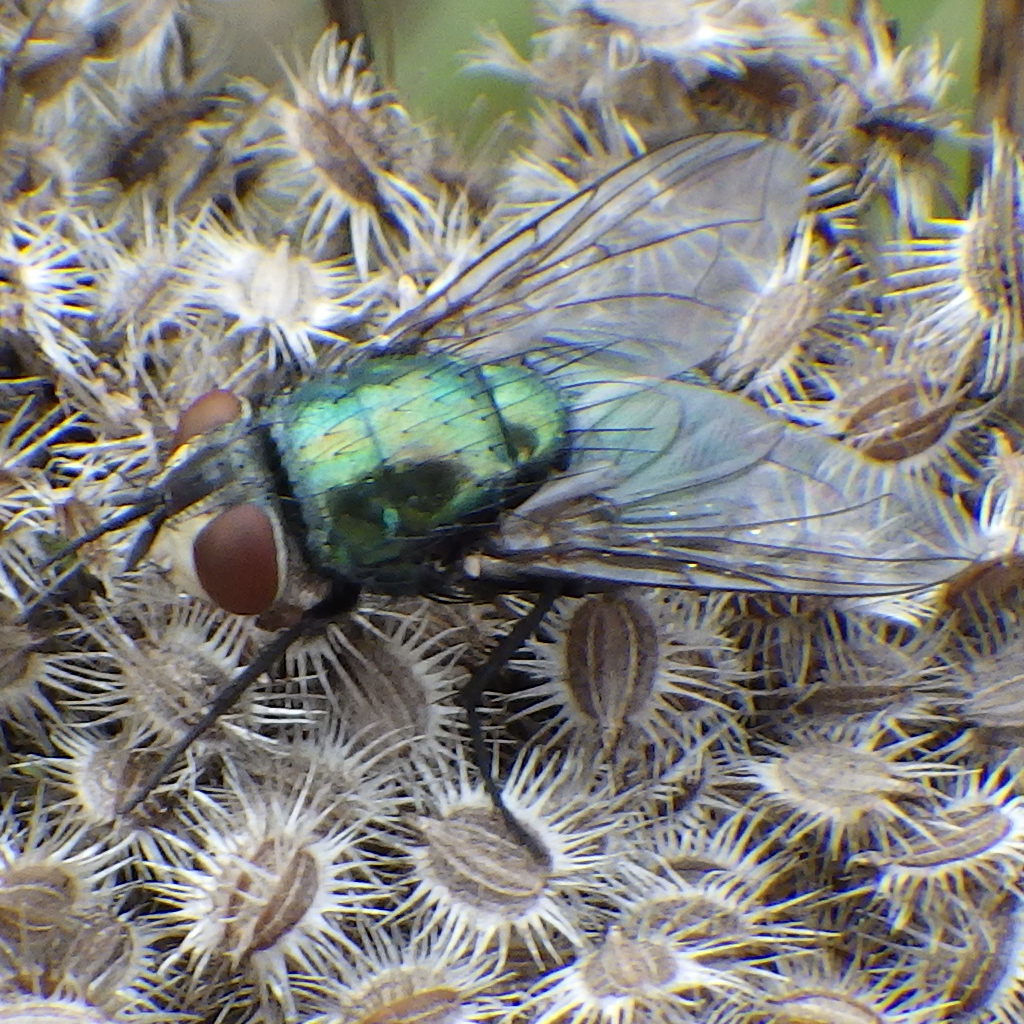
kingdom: Animalia
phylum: Arthropoda
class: Insecta
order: Diptera
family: Calliphoridae
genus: Lucilia
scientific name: Lucilia sericata
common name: Blow fly
